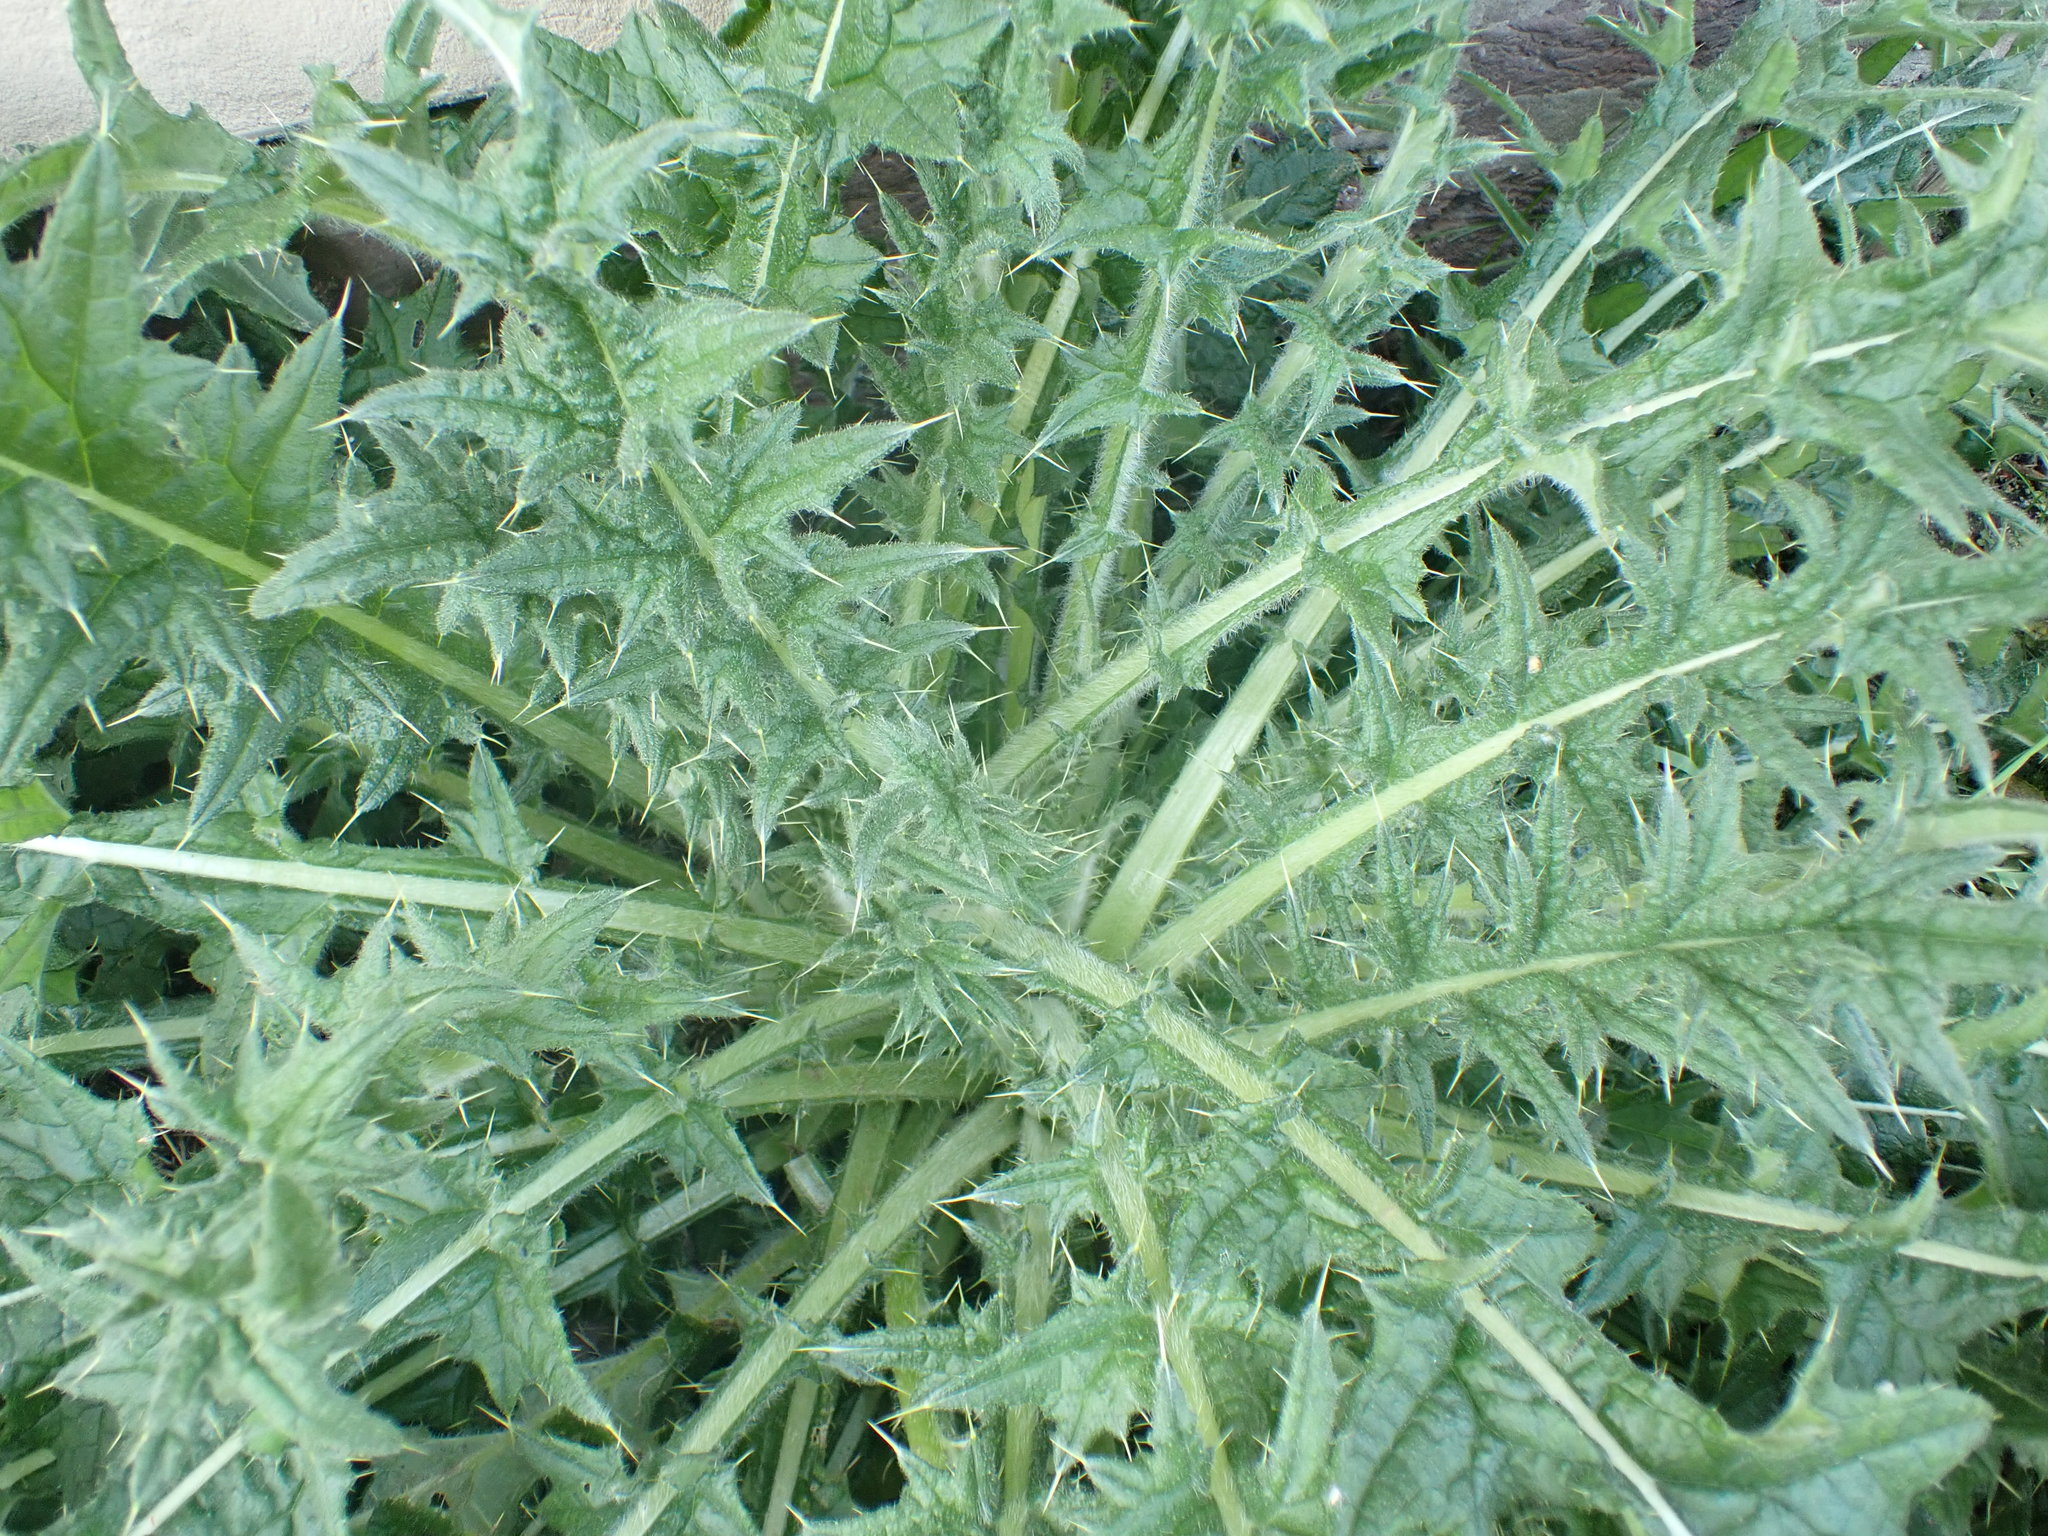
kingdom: Plantae
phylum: Tracheophyta
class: Magnoliopsida
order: Asterales
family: Asteraceae
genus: Cirsium
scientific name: Cirsium vulgare
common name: Bull thistle
